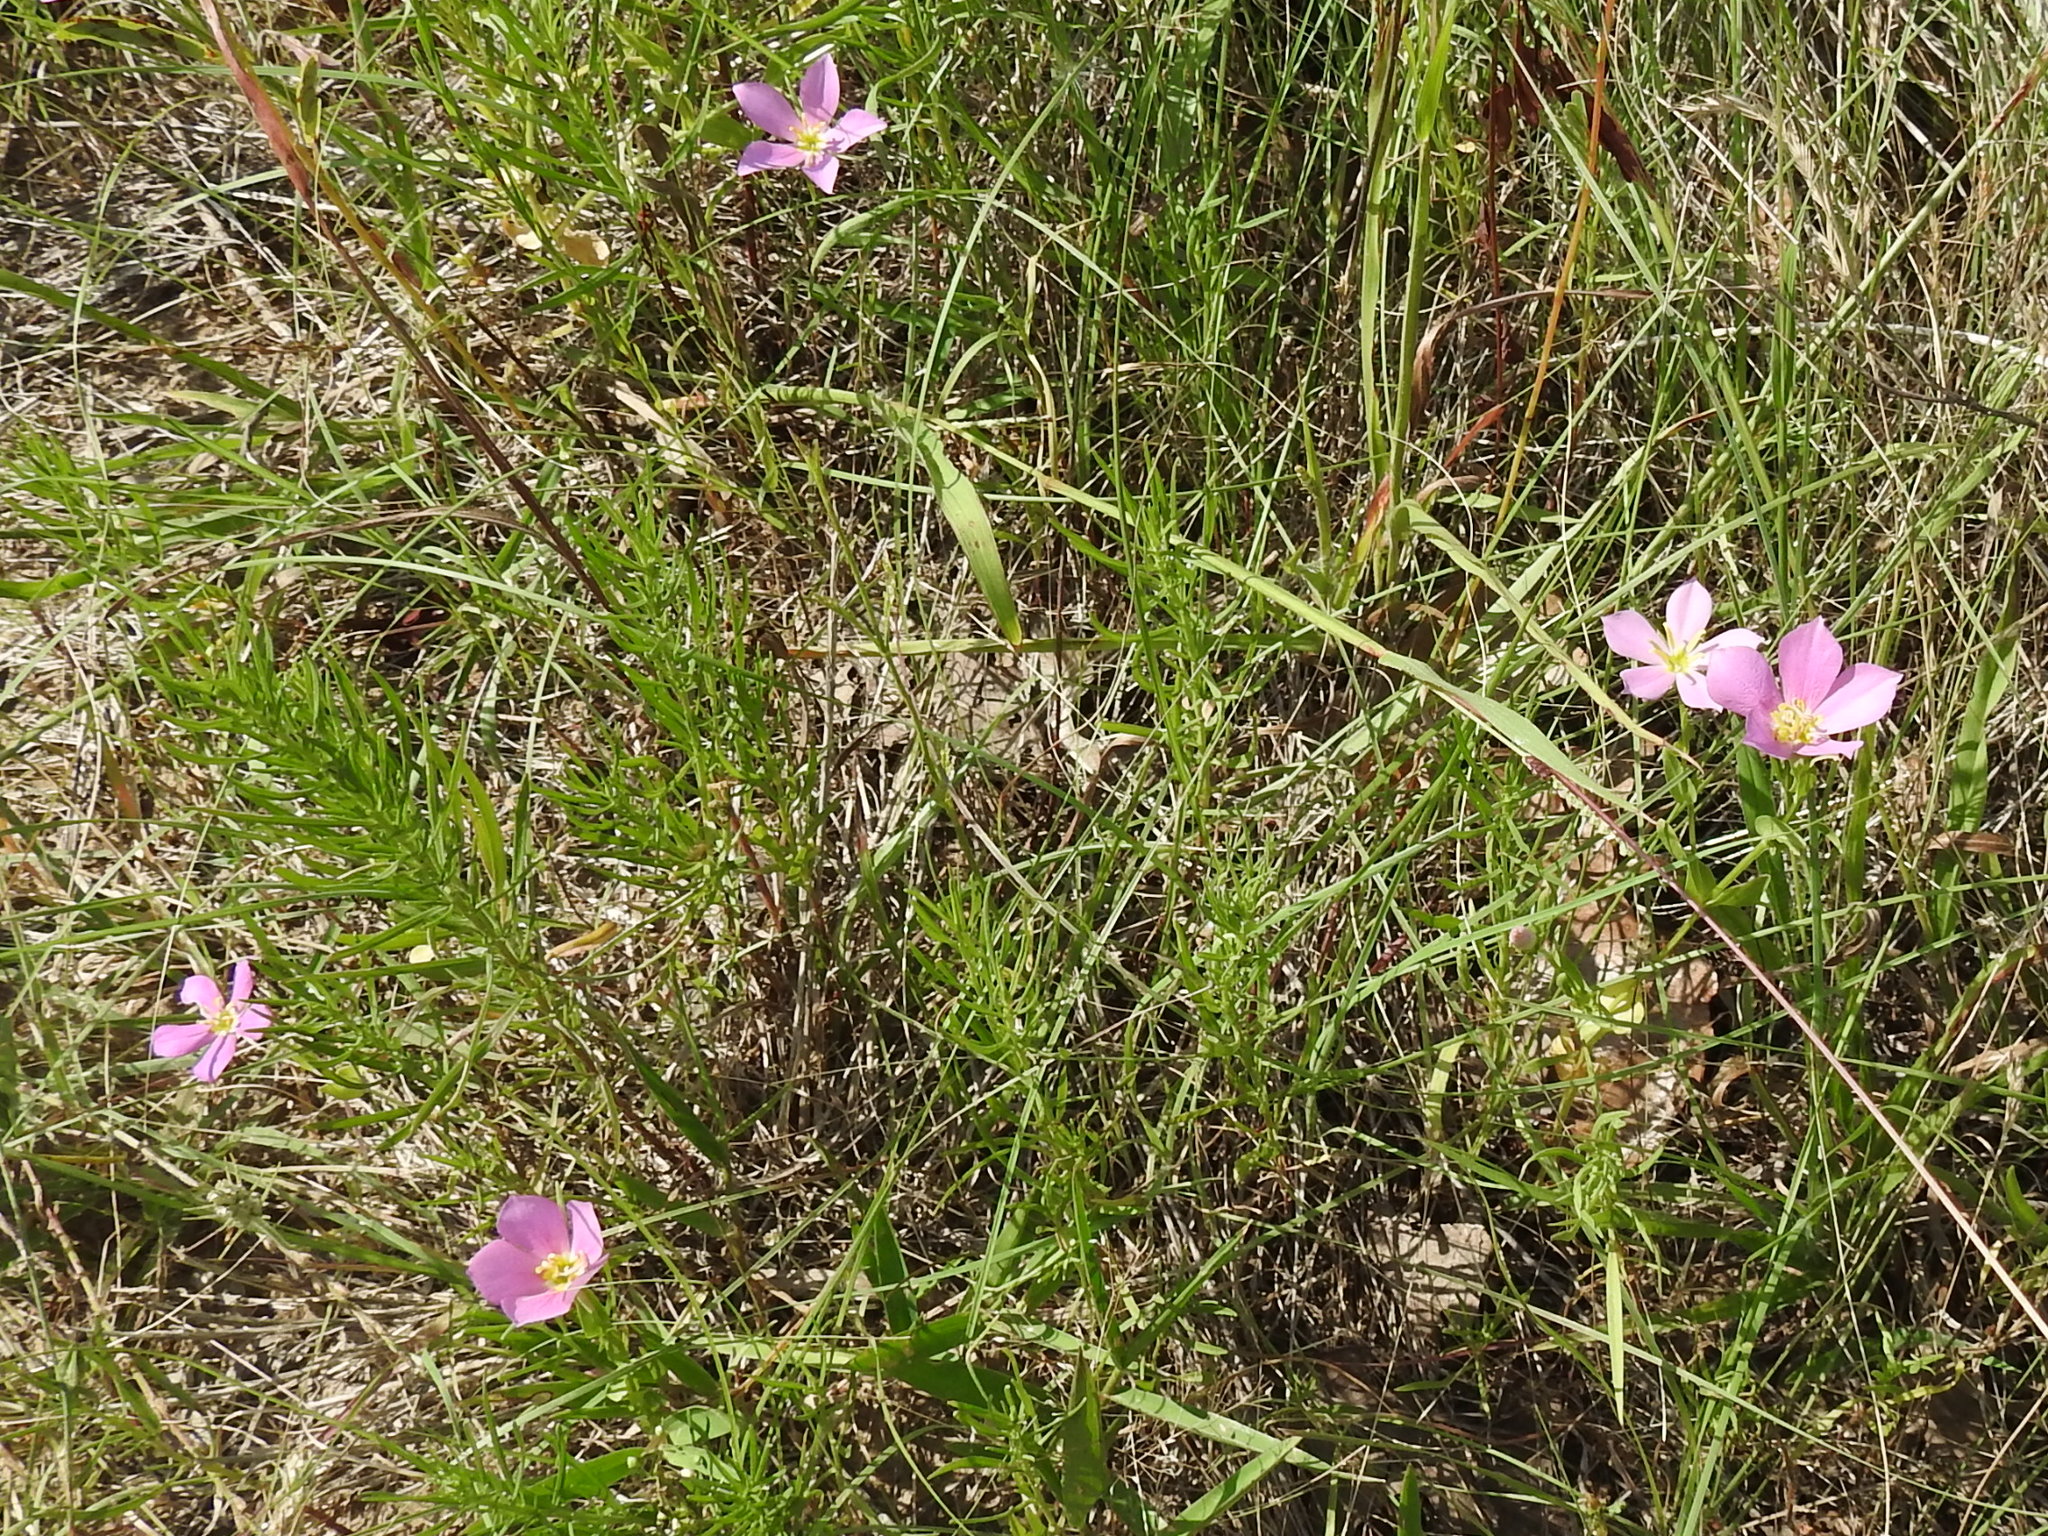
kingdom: Plantae
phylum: Tracheophyta
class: Magnoliopsida
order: Gentianales
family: Gentianaceae
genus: Sabatia
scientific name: Sabatia campestris
